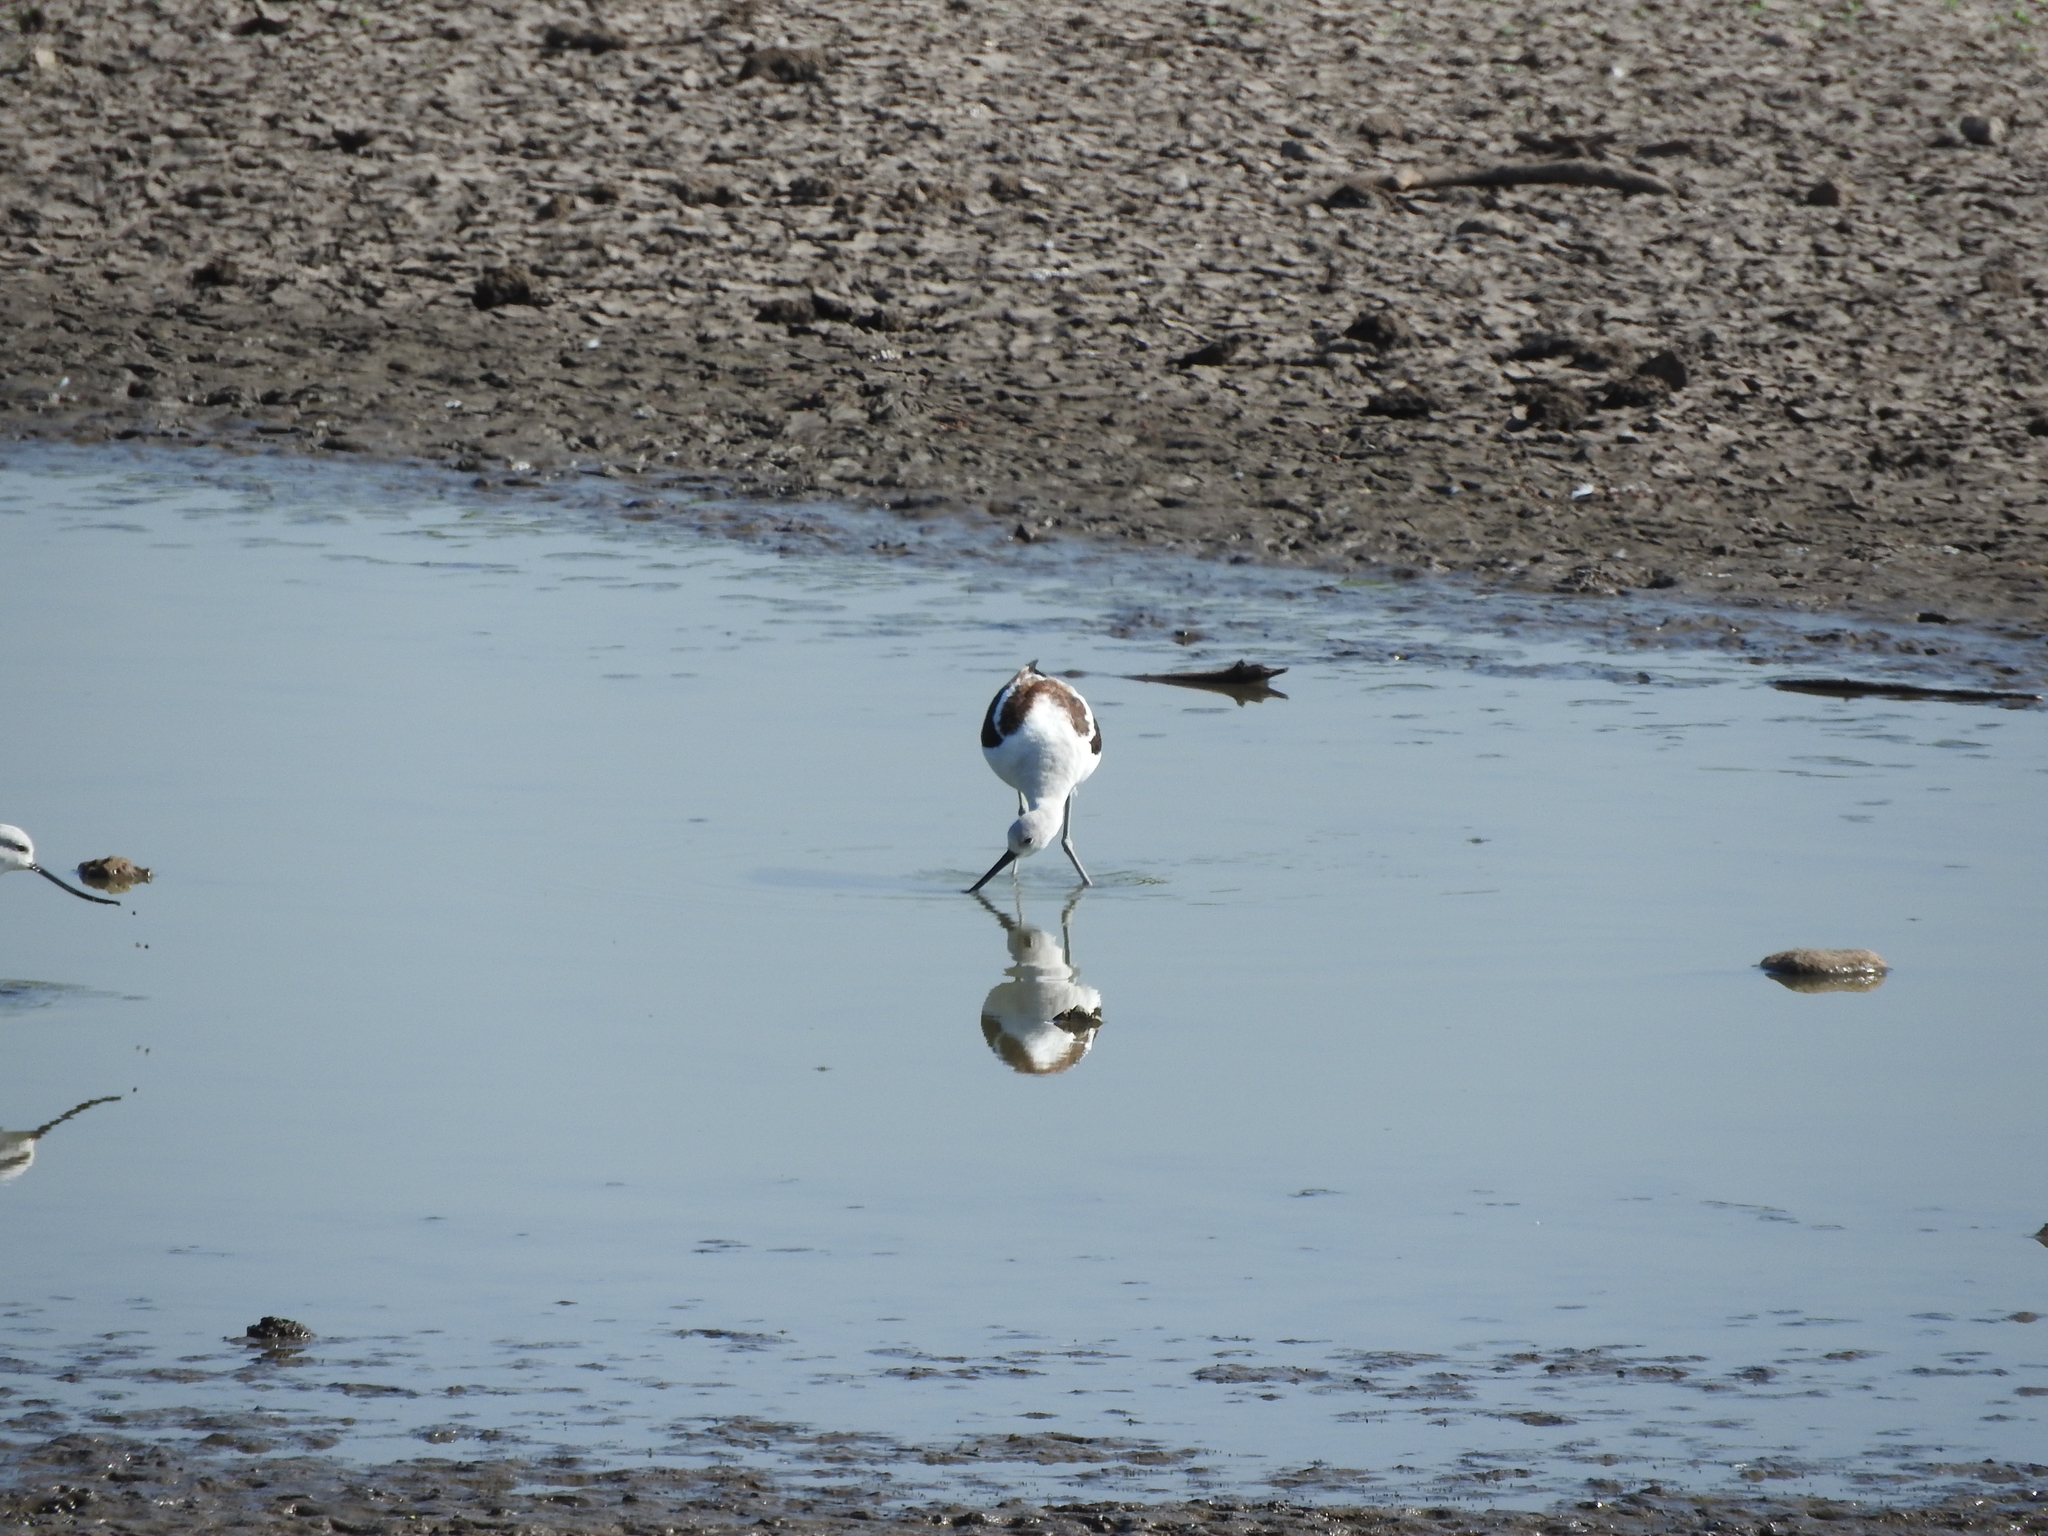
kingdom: Animalia
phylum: Chordata
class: Aves
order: Charadriiformes
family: Recurvirostridae
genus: Recurvirostra
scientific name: Recurvirostra americana
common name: American avocet
